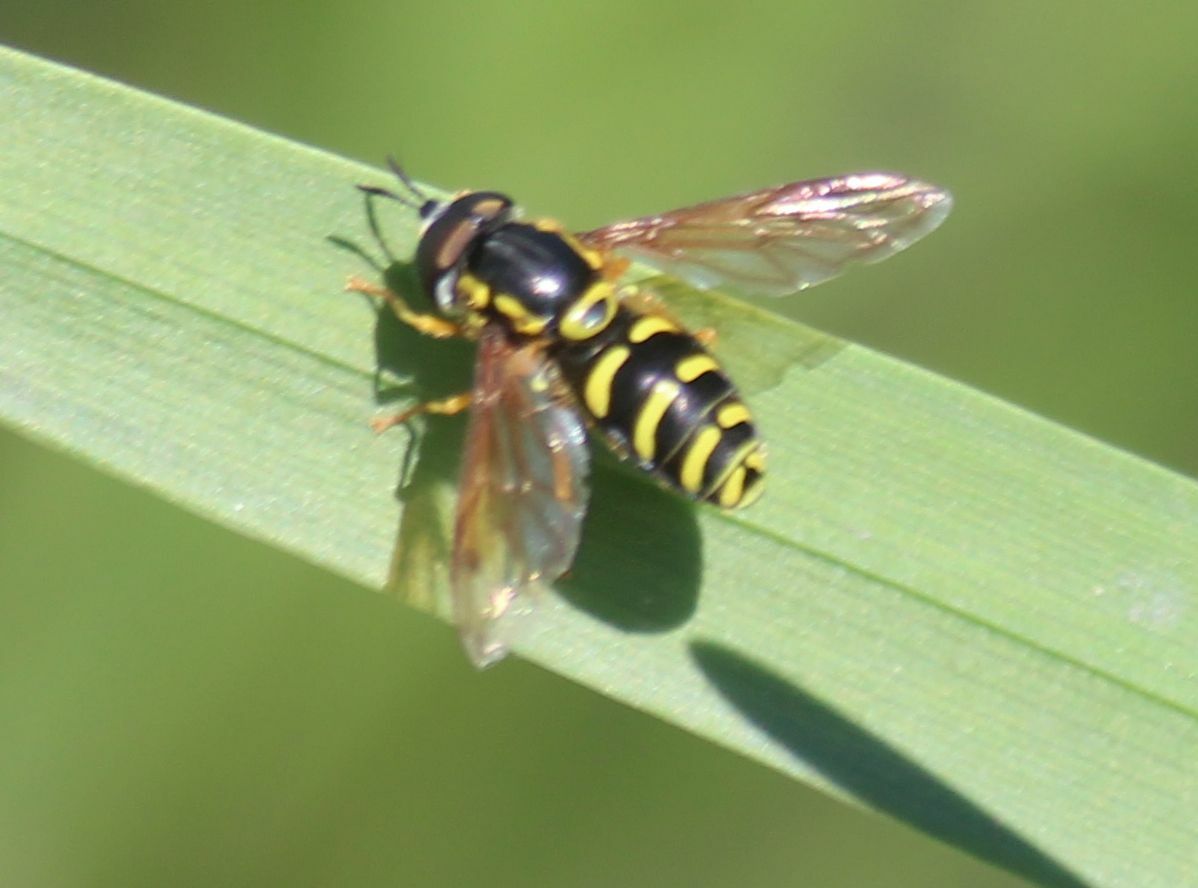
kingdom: Animalia
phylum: Arthropoda
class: Insecta
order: Diptera
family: Syrphidae
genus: Chrysotoxum
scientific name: Chrysotoxum festivum
